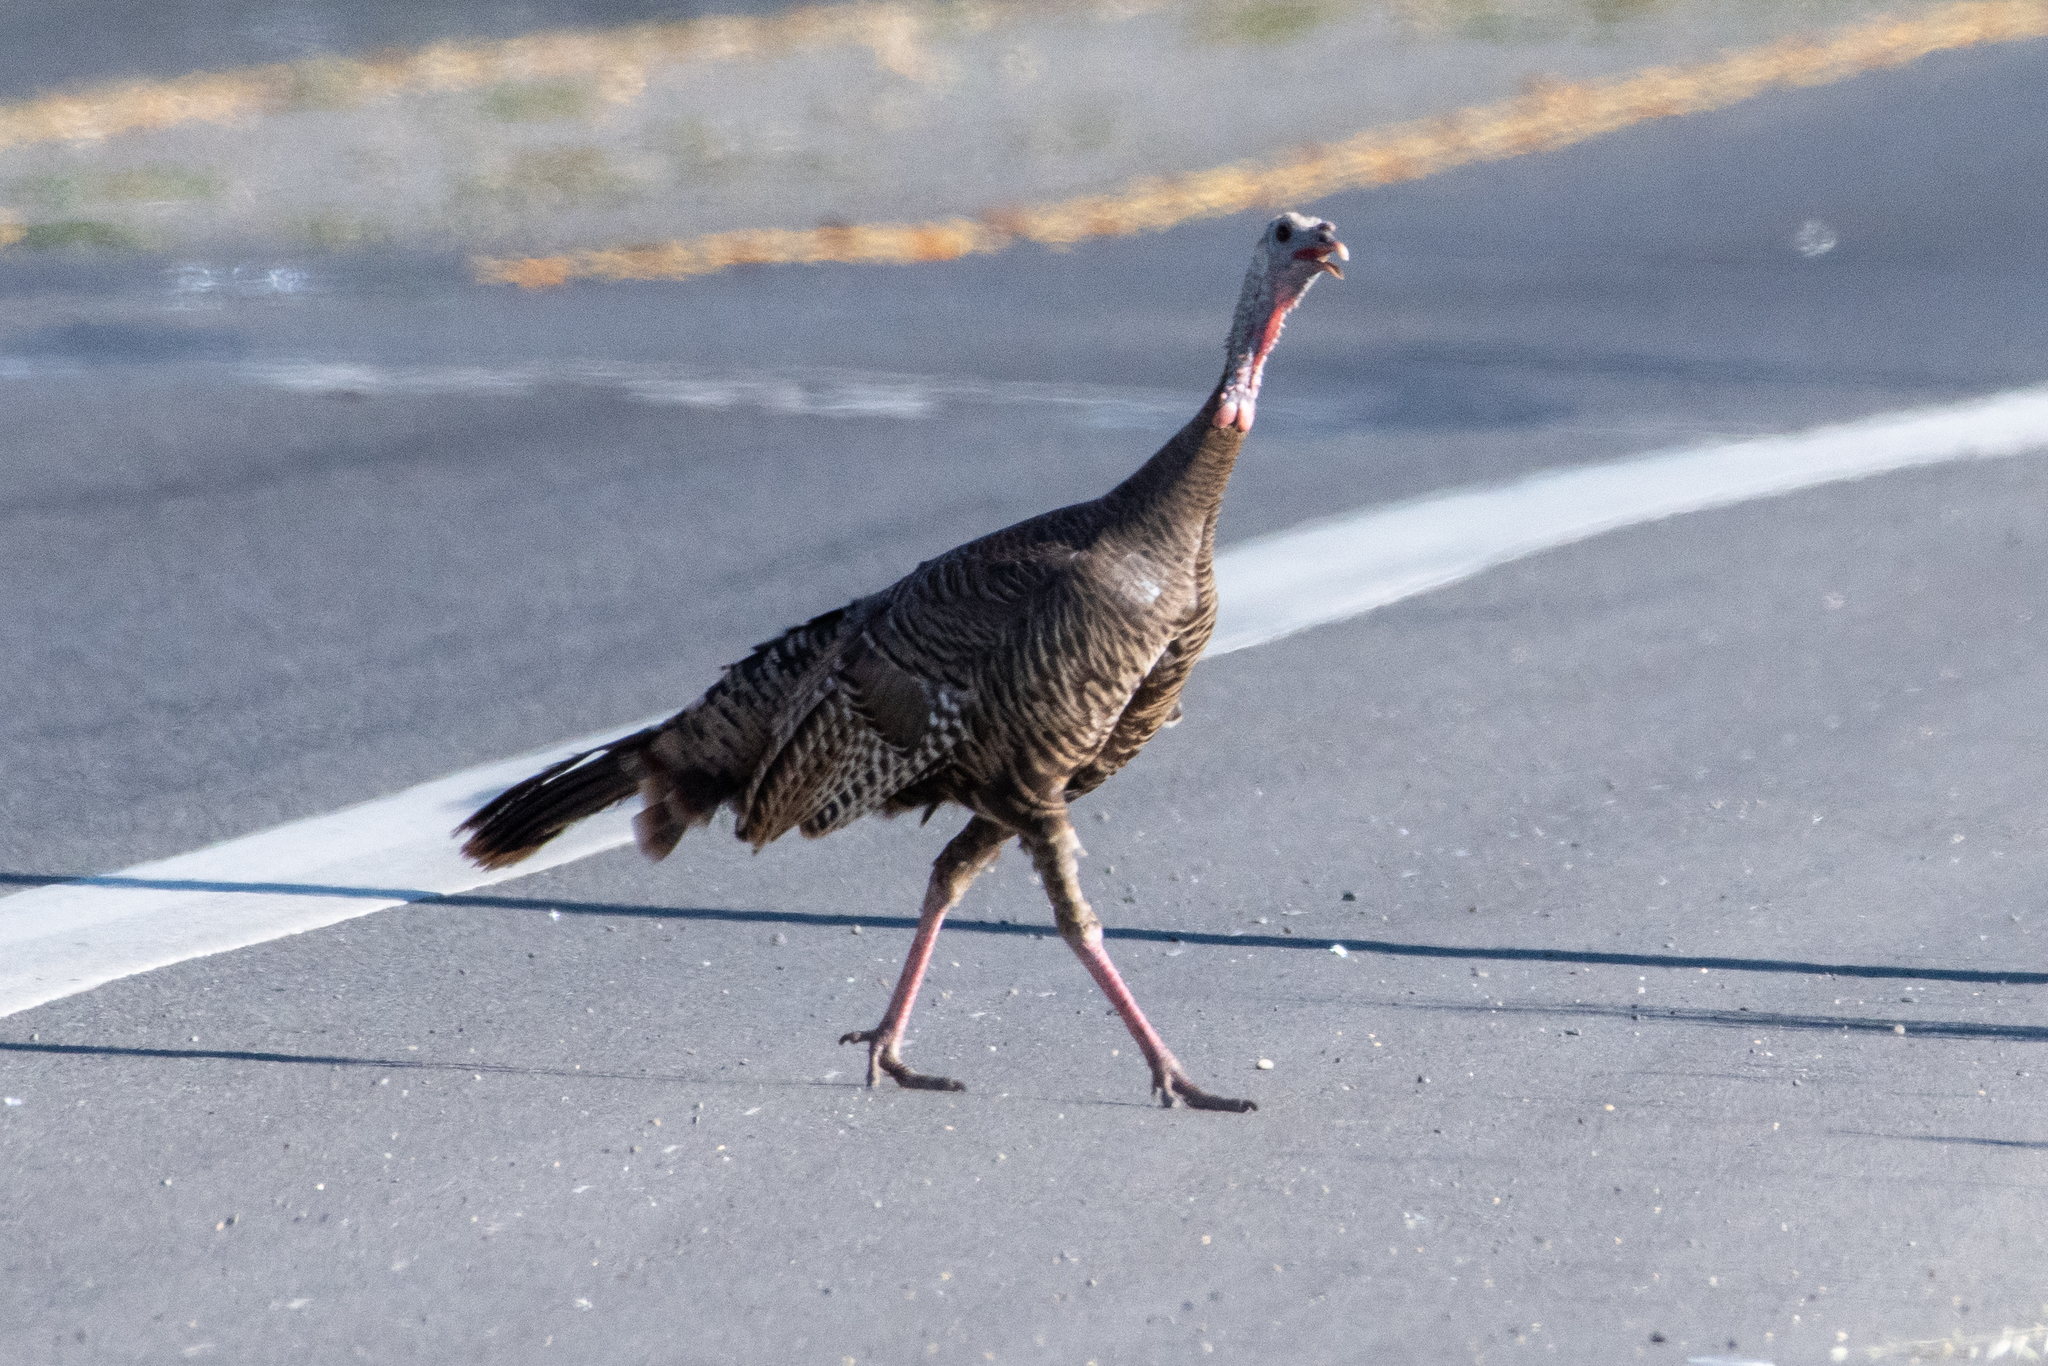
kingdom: Animalia
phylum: Chordata
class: Aves
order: Galliformes
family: Phasianidae
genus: Meleagris
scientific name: Meleagris gallopavo
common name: Wild turkey
